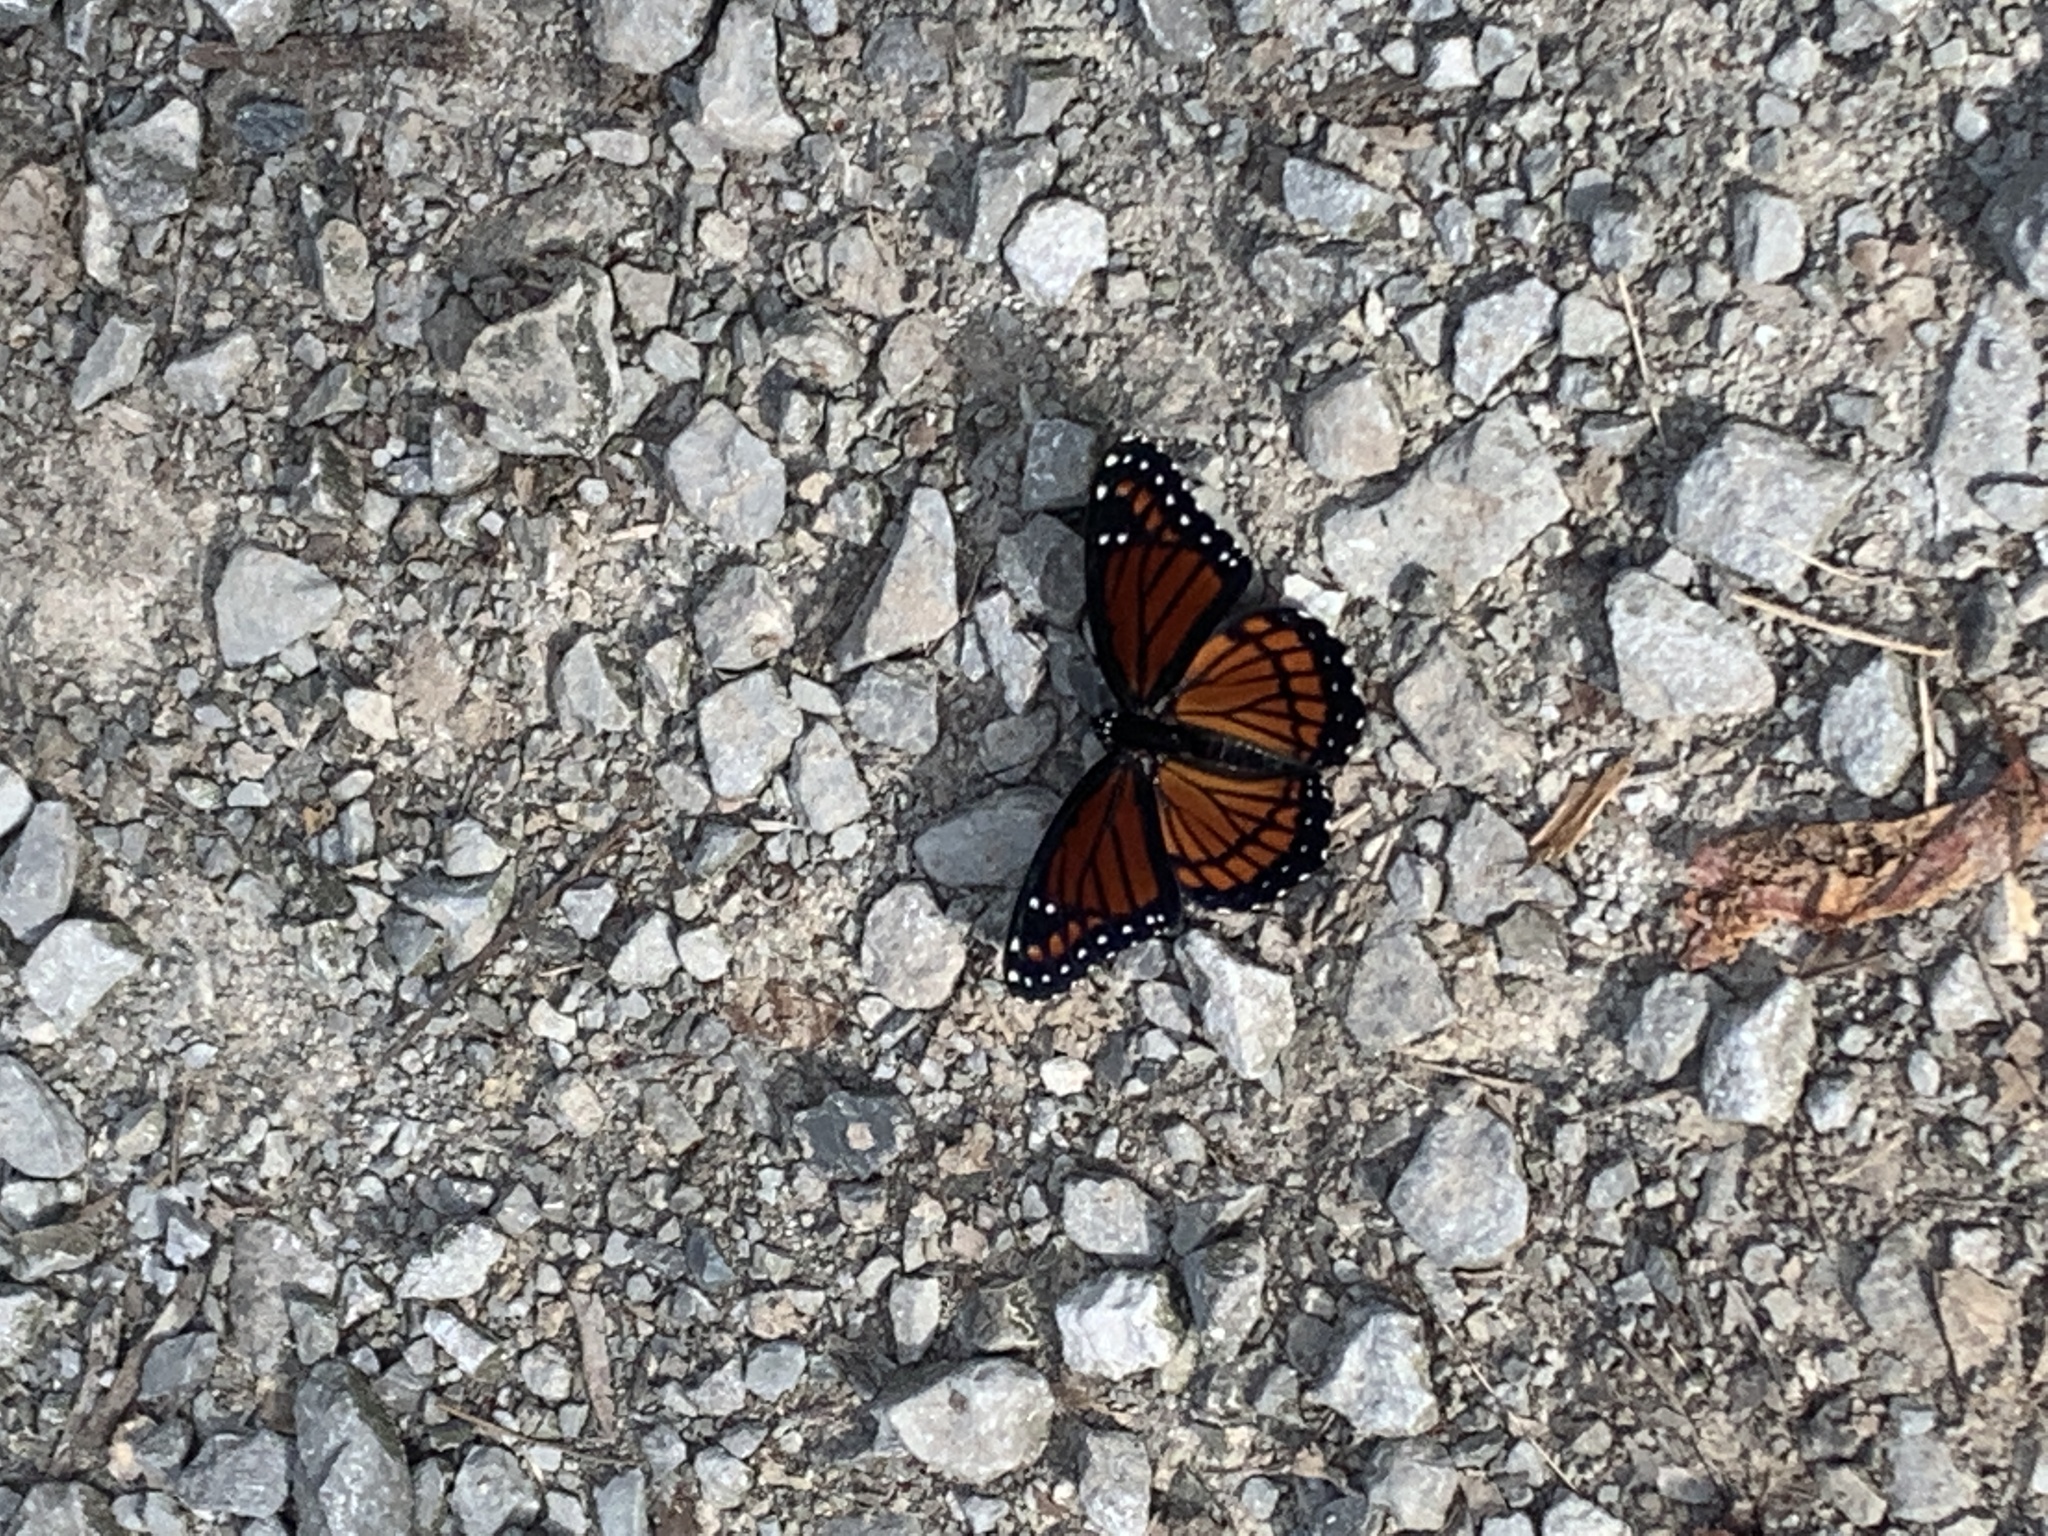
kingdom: Animalia
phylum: Arthropoda
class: Insecta
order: Lepidoptera
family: Nymphalidae
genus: Limenitis
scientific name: Limenitis archippus
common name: Viceroy
